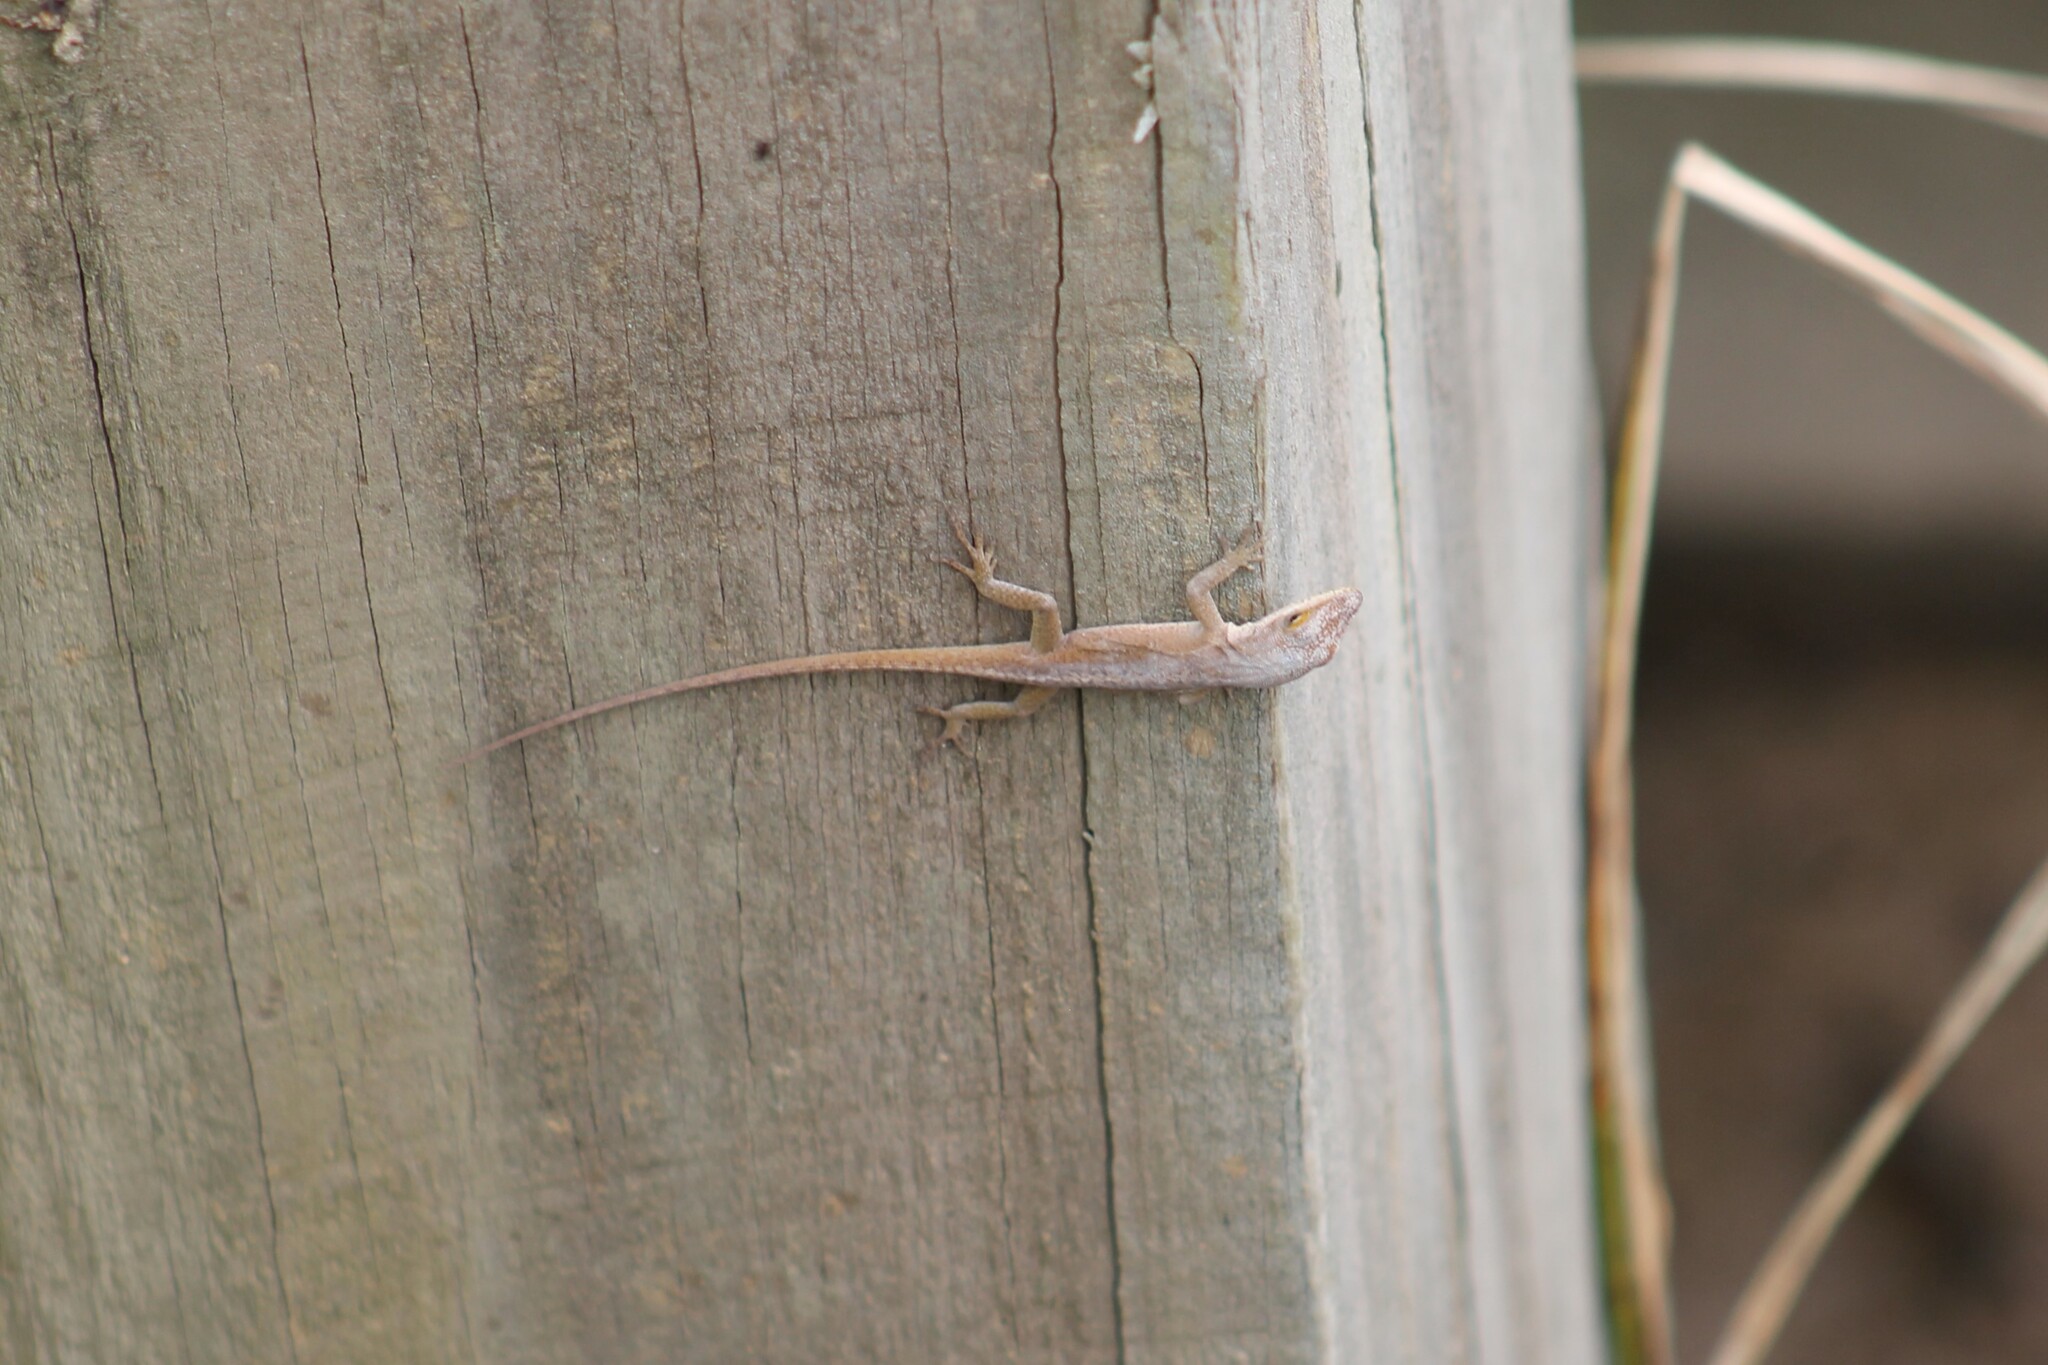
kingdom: Animalia
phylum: Chordata
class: Squamata
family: Dactyloidae
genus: Anolis
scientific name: Anolis carolinensis
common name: Green anole
